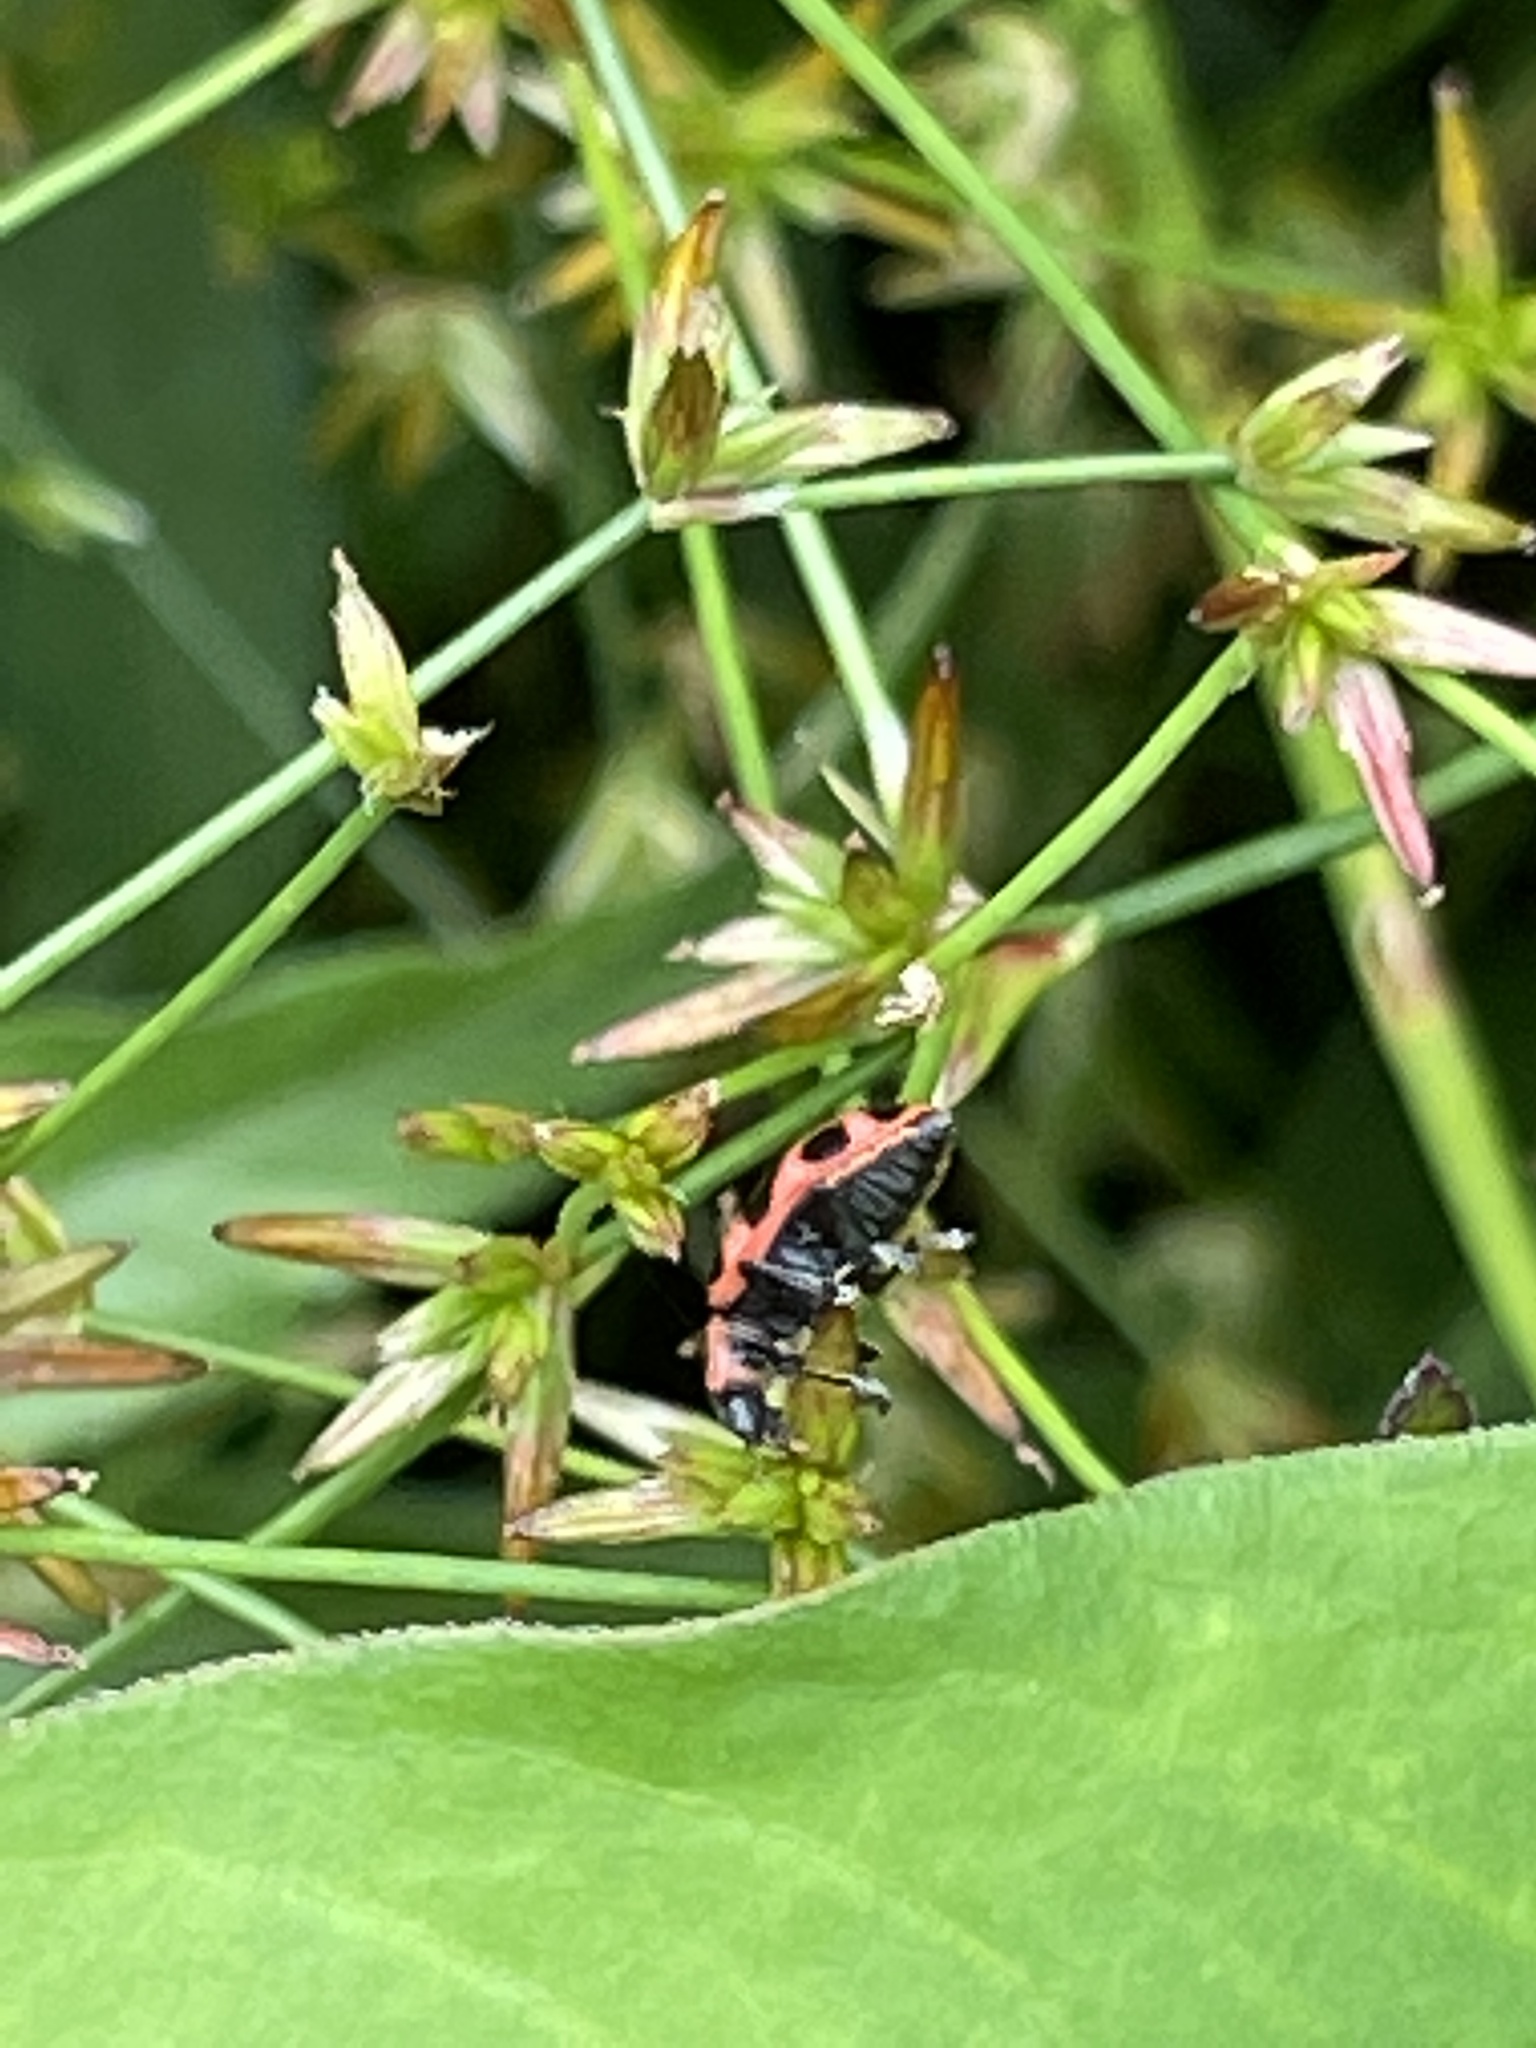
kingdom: Animalia
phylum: Arthropoda
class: Insecta
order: Coleoptera
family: Coccinellidae
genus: Coleomegilla
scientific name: Coleomegilla maculata
